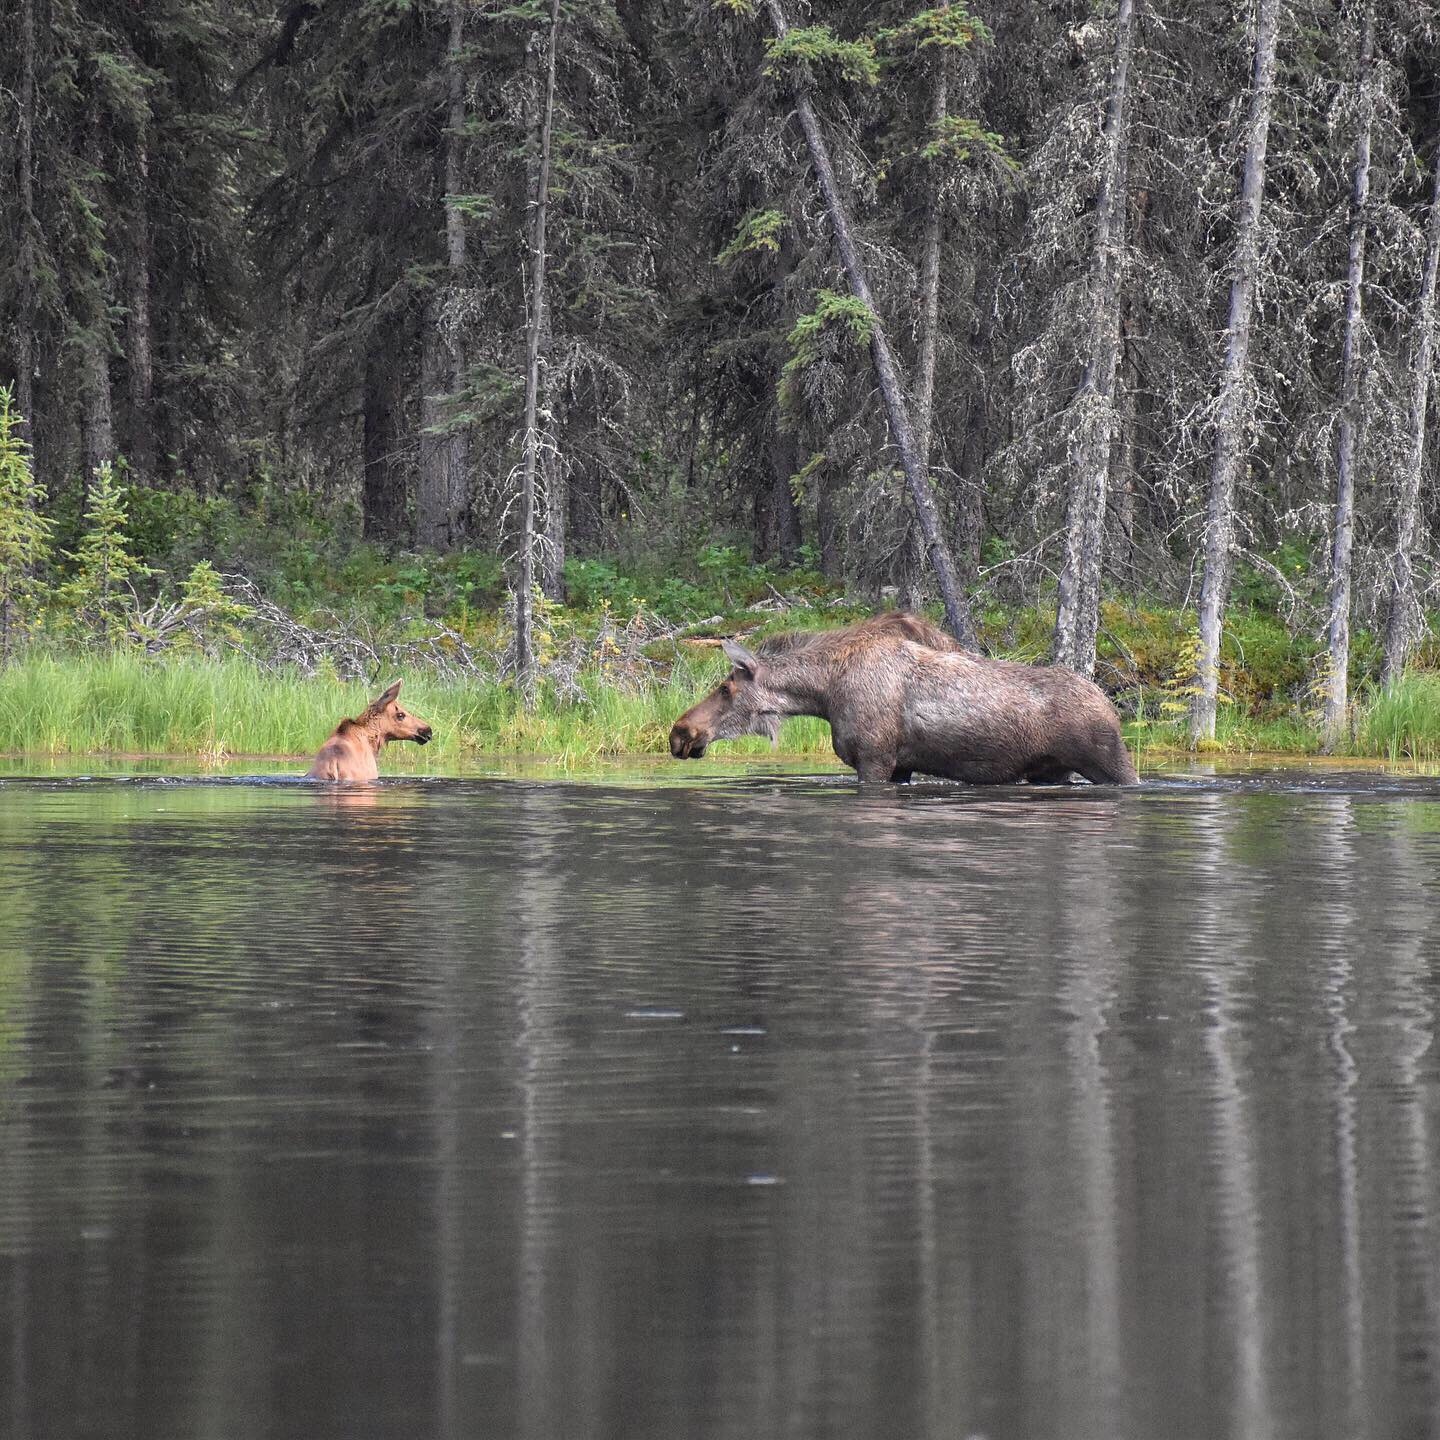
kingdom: Animalia
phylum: Chordata
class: Mammalia
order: Artiodactyla
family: Cervidae
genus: Alces
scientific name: Alces alces
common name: Moose
